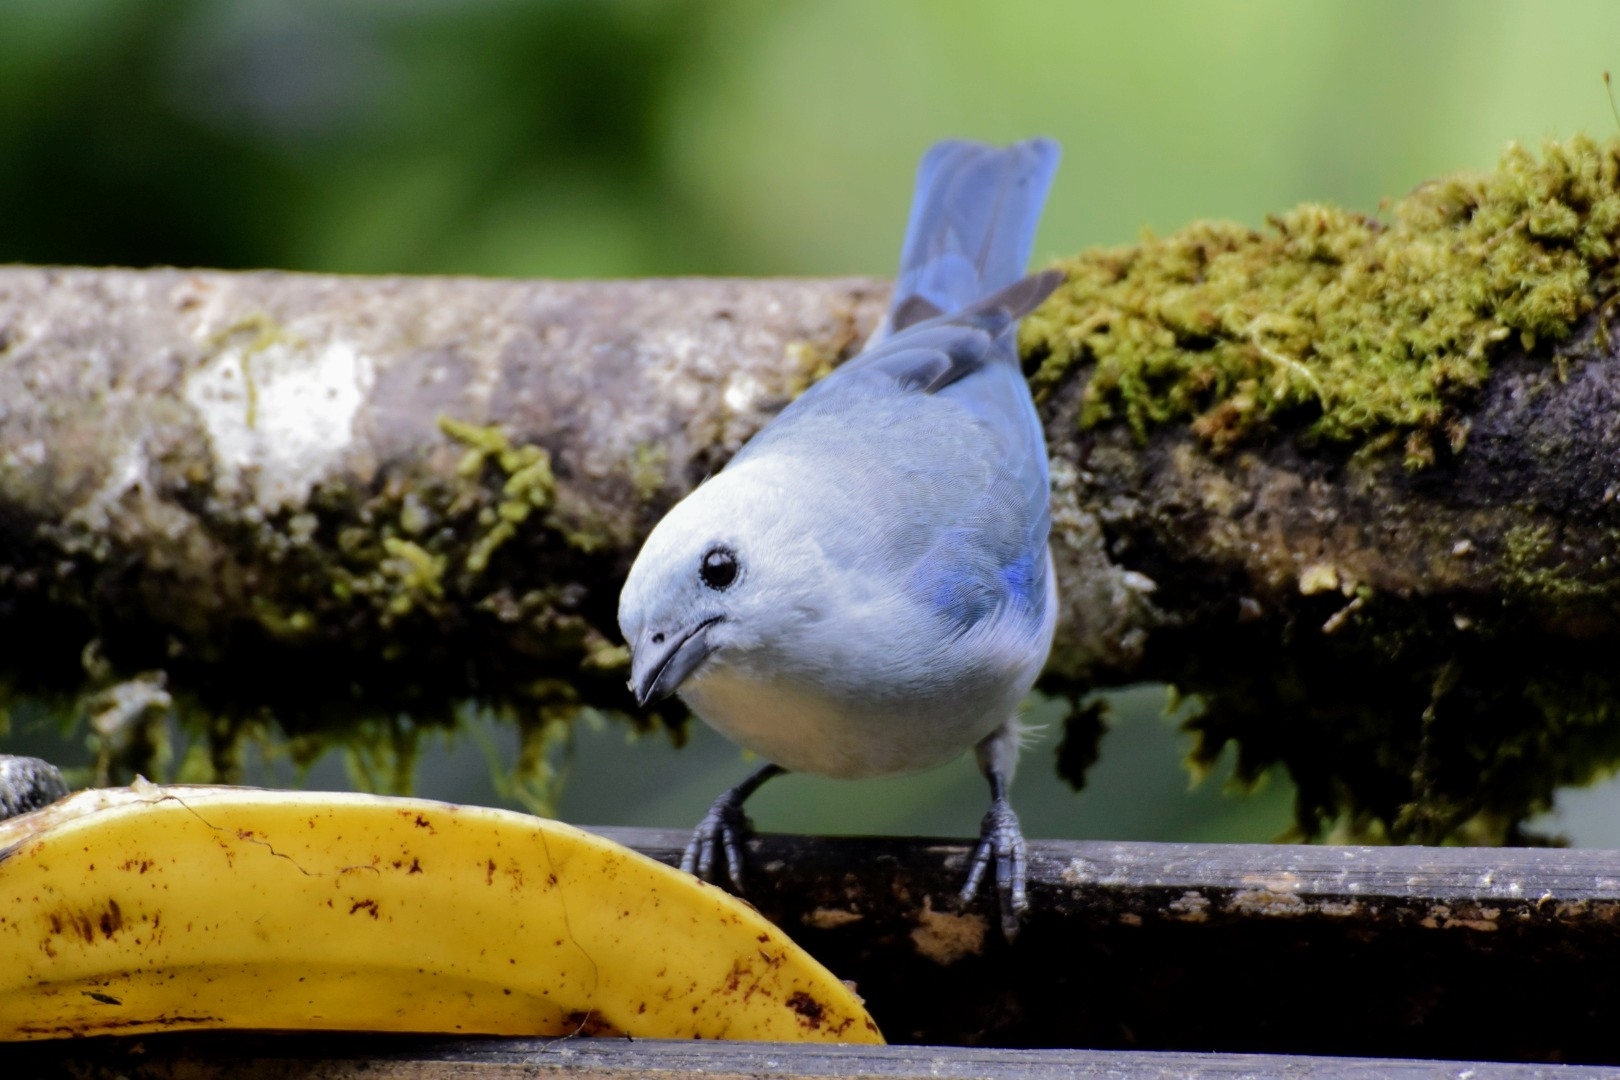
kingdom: Animalia
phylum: Chordata
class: Aves
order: Passeriformes
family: Thraupidae
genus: Thraupis
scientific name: Thraupis episcopus
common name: Blue-grey tanager
